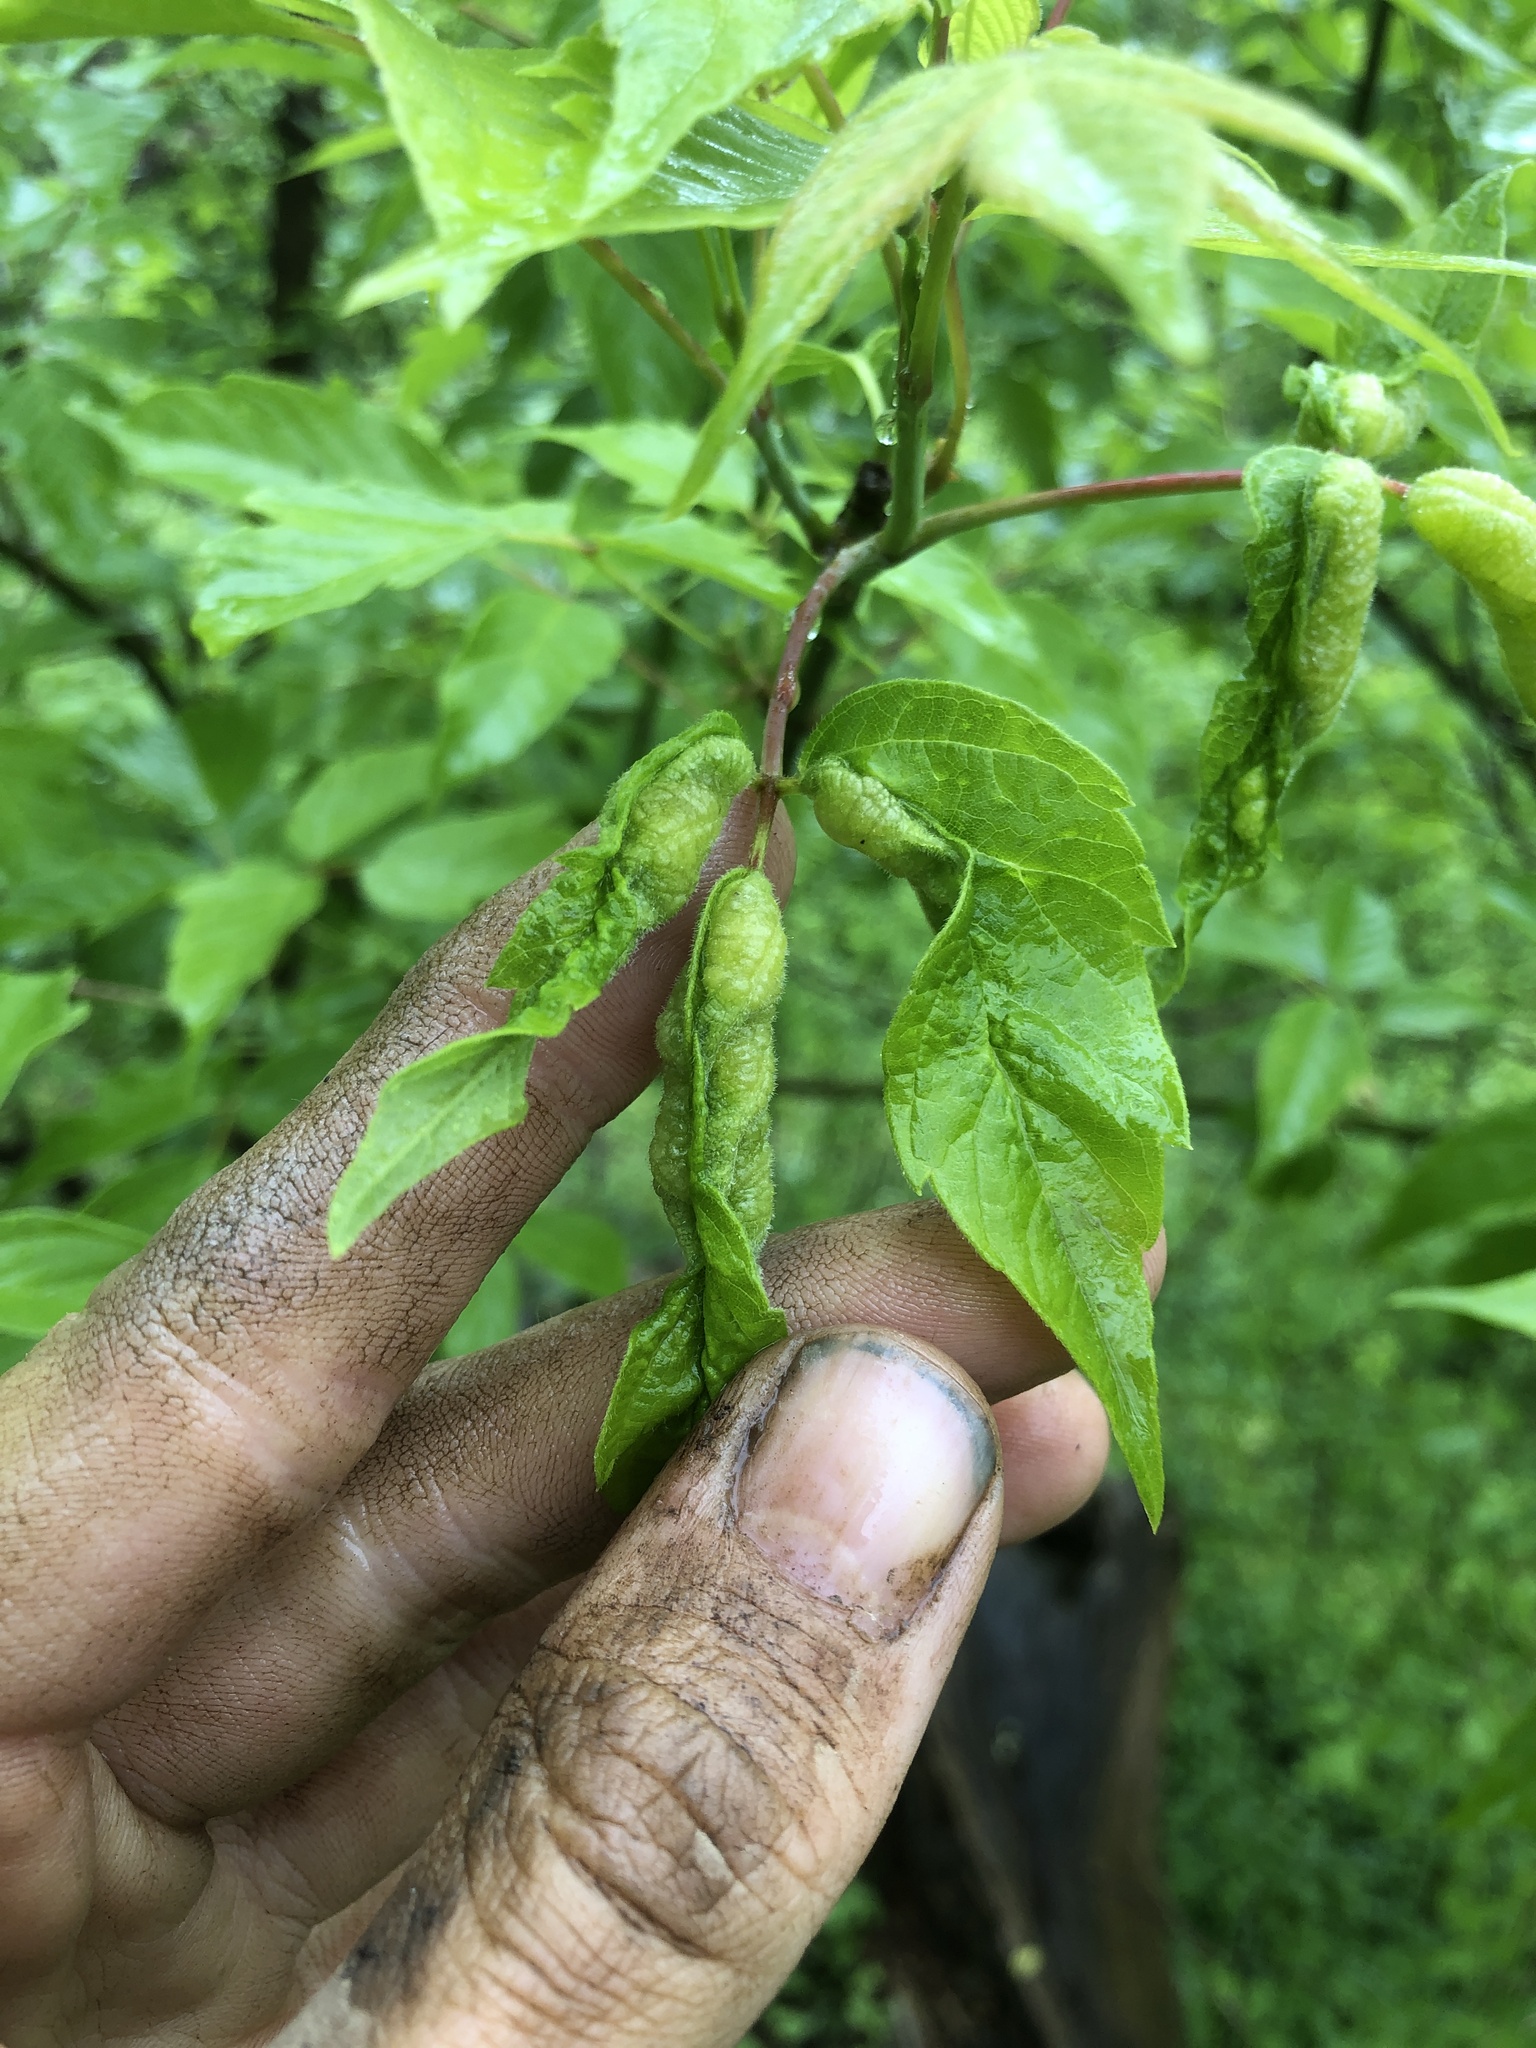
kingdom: Animalia
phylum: Arthropoda
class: Insecta
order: Diptera
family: Cecidomyiidae
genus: Contarinia
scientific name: Contarinia negundinis
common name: Boxelder budgall midge
